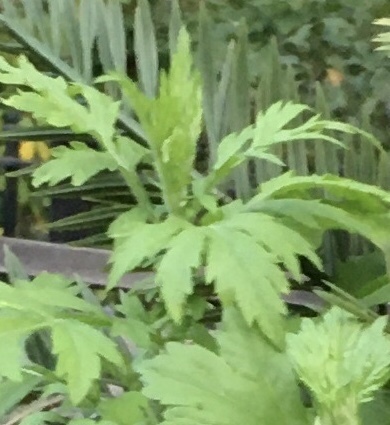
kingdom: Plantae
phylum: Tracheophyta
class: Magnoliopsida
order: Asterales
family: Asteraceae
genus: Artemisia
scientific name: Artemisia vulgaris
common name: Mugwort
